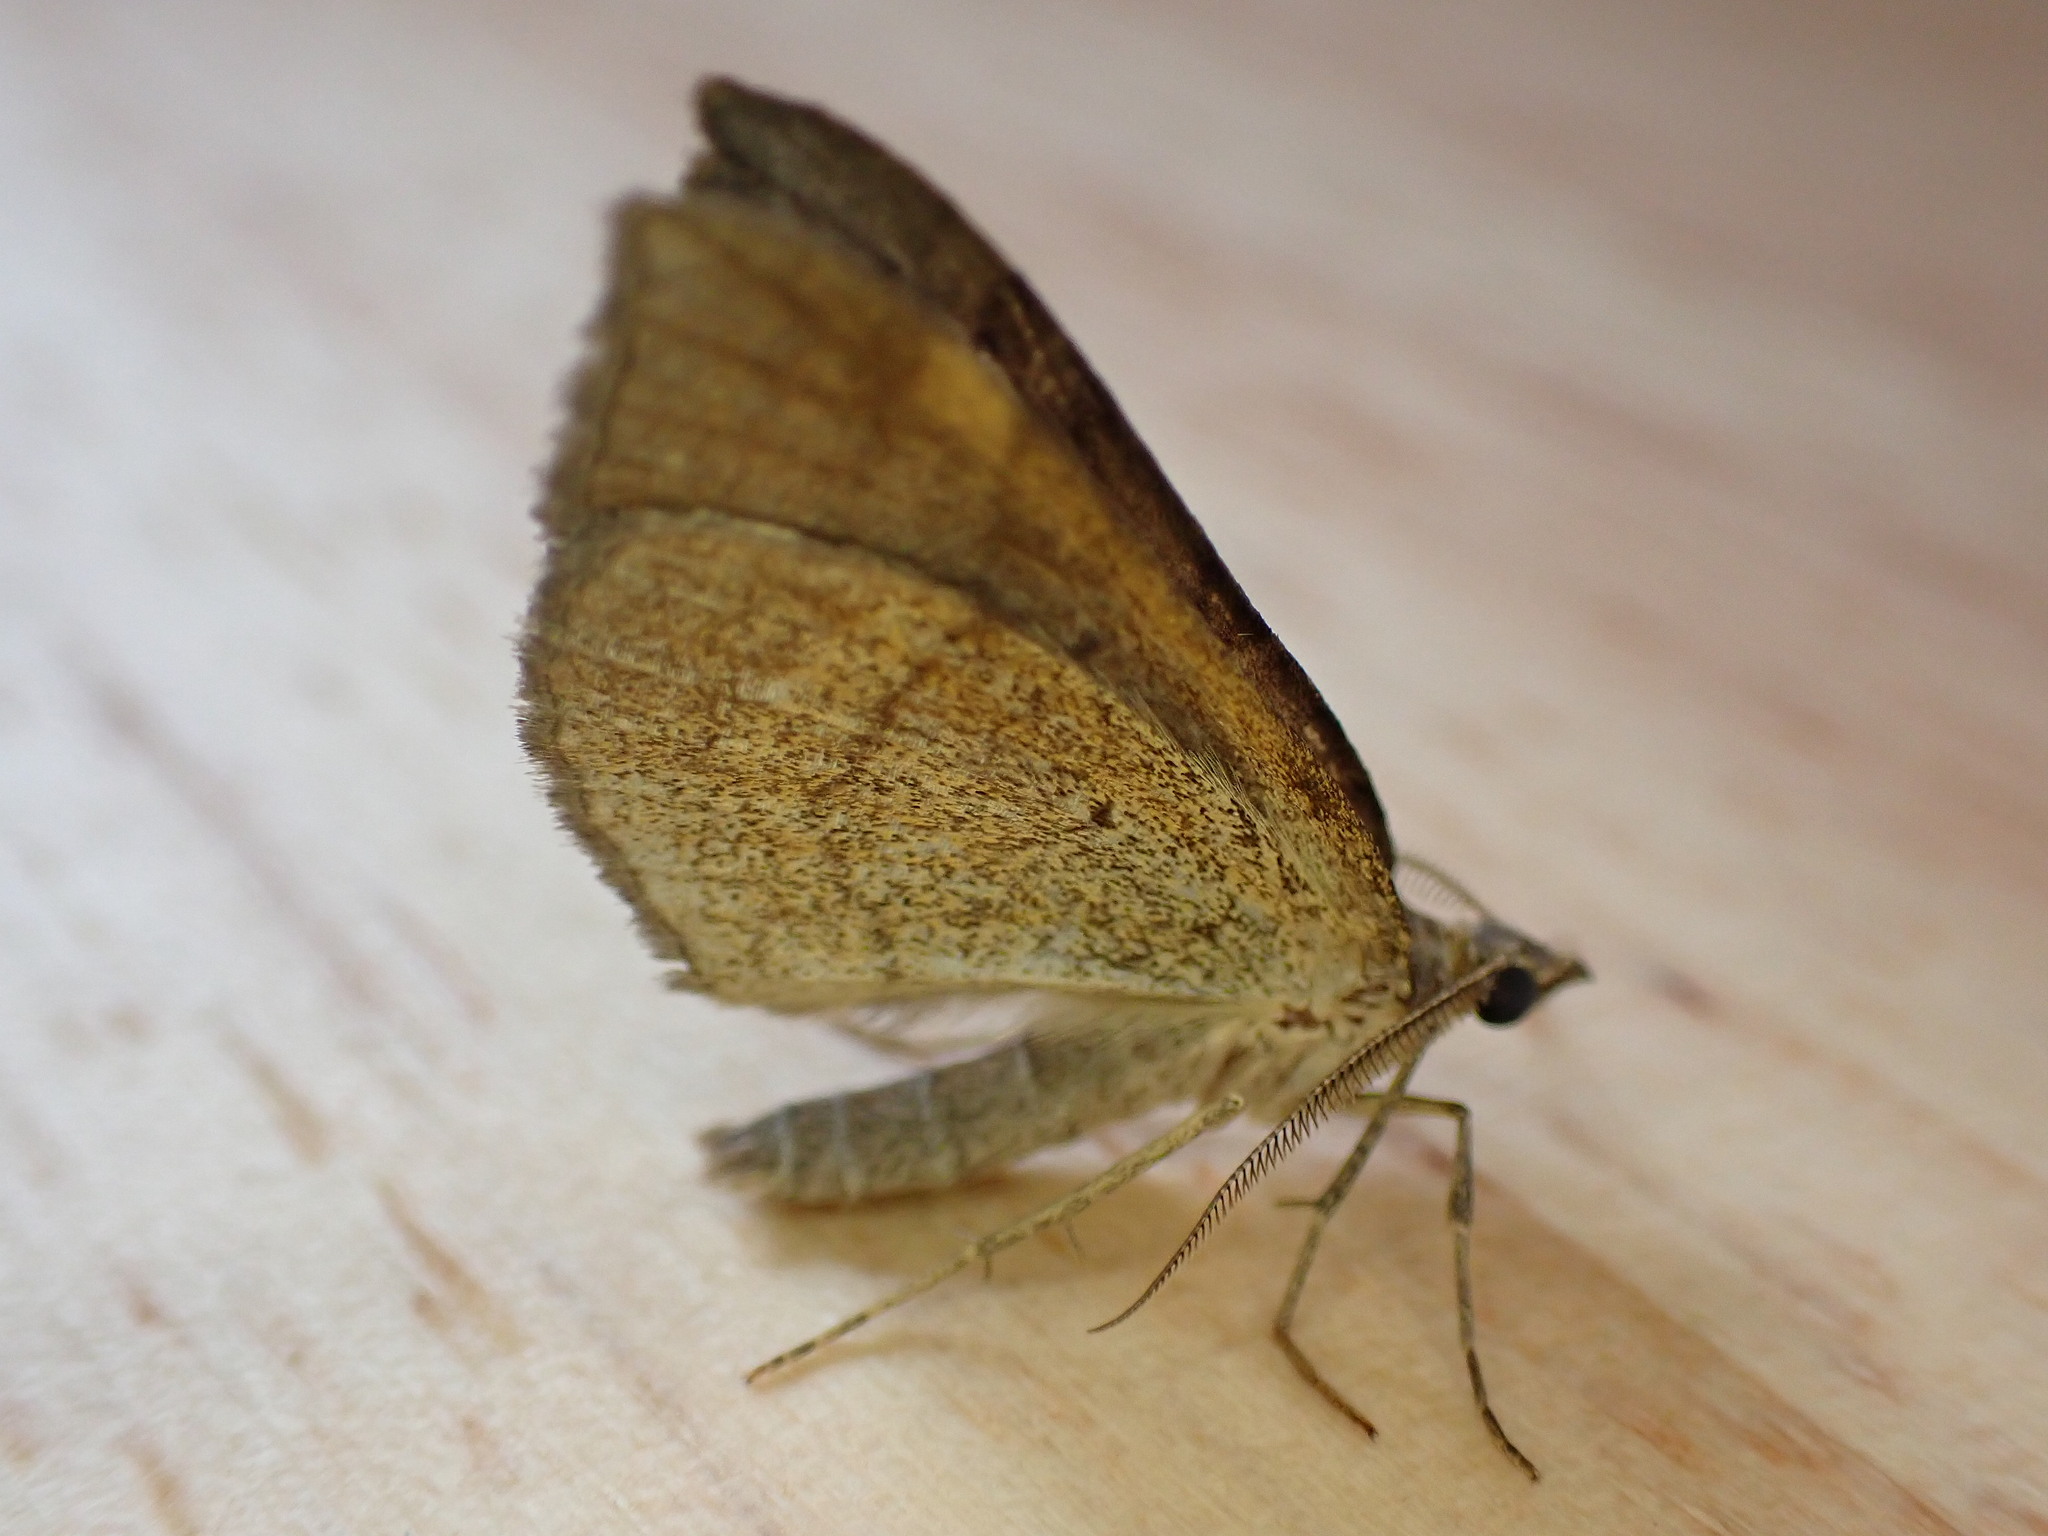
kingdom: Animalia
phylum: Arthropoda
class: Insecta
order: Lepidoptera
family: Geometridae
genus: Scotopteryx
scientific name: Scotopteryx chenopodiata
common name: Shaded broad-bar
